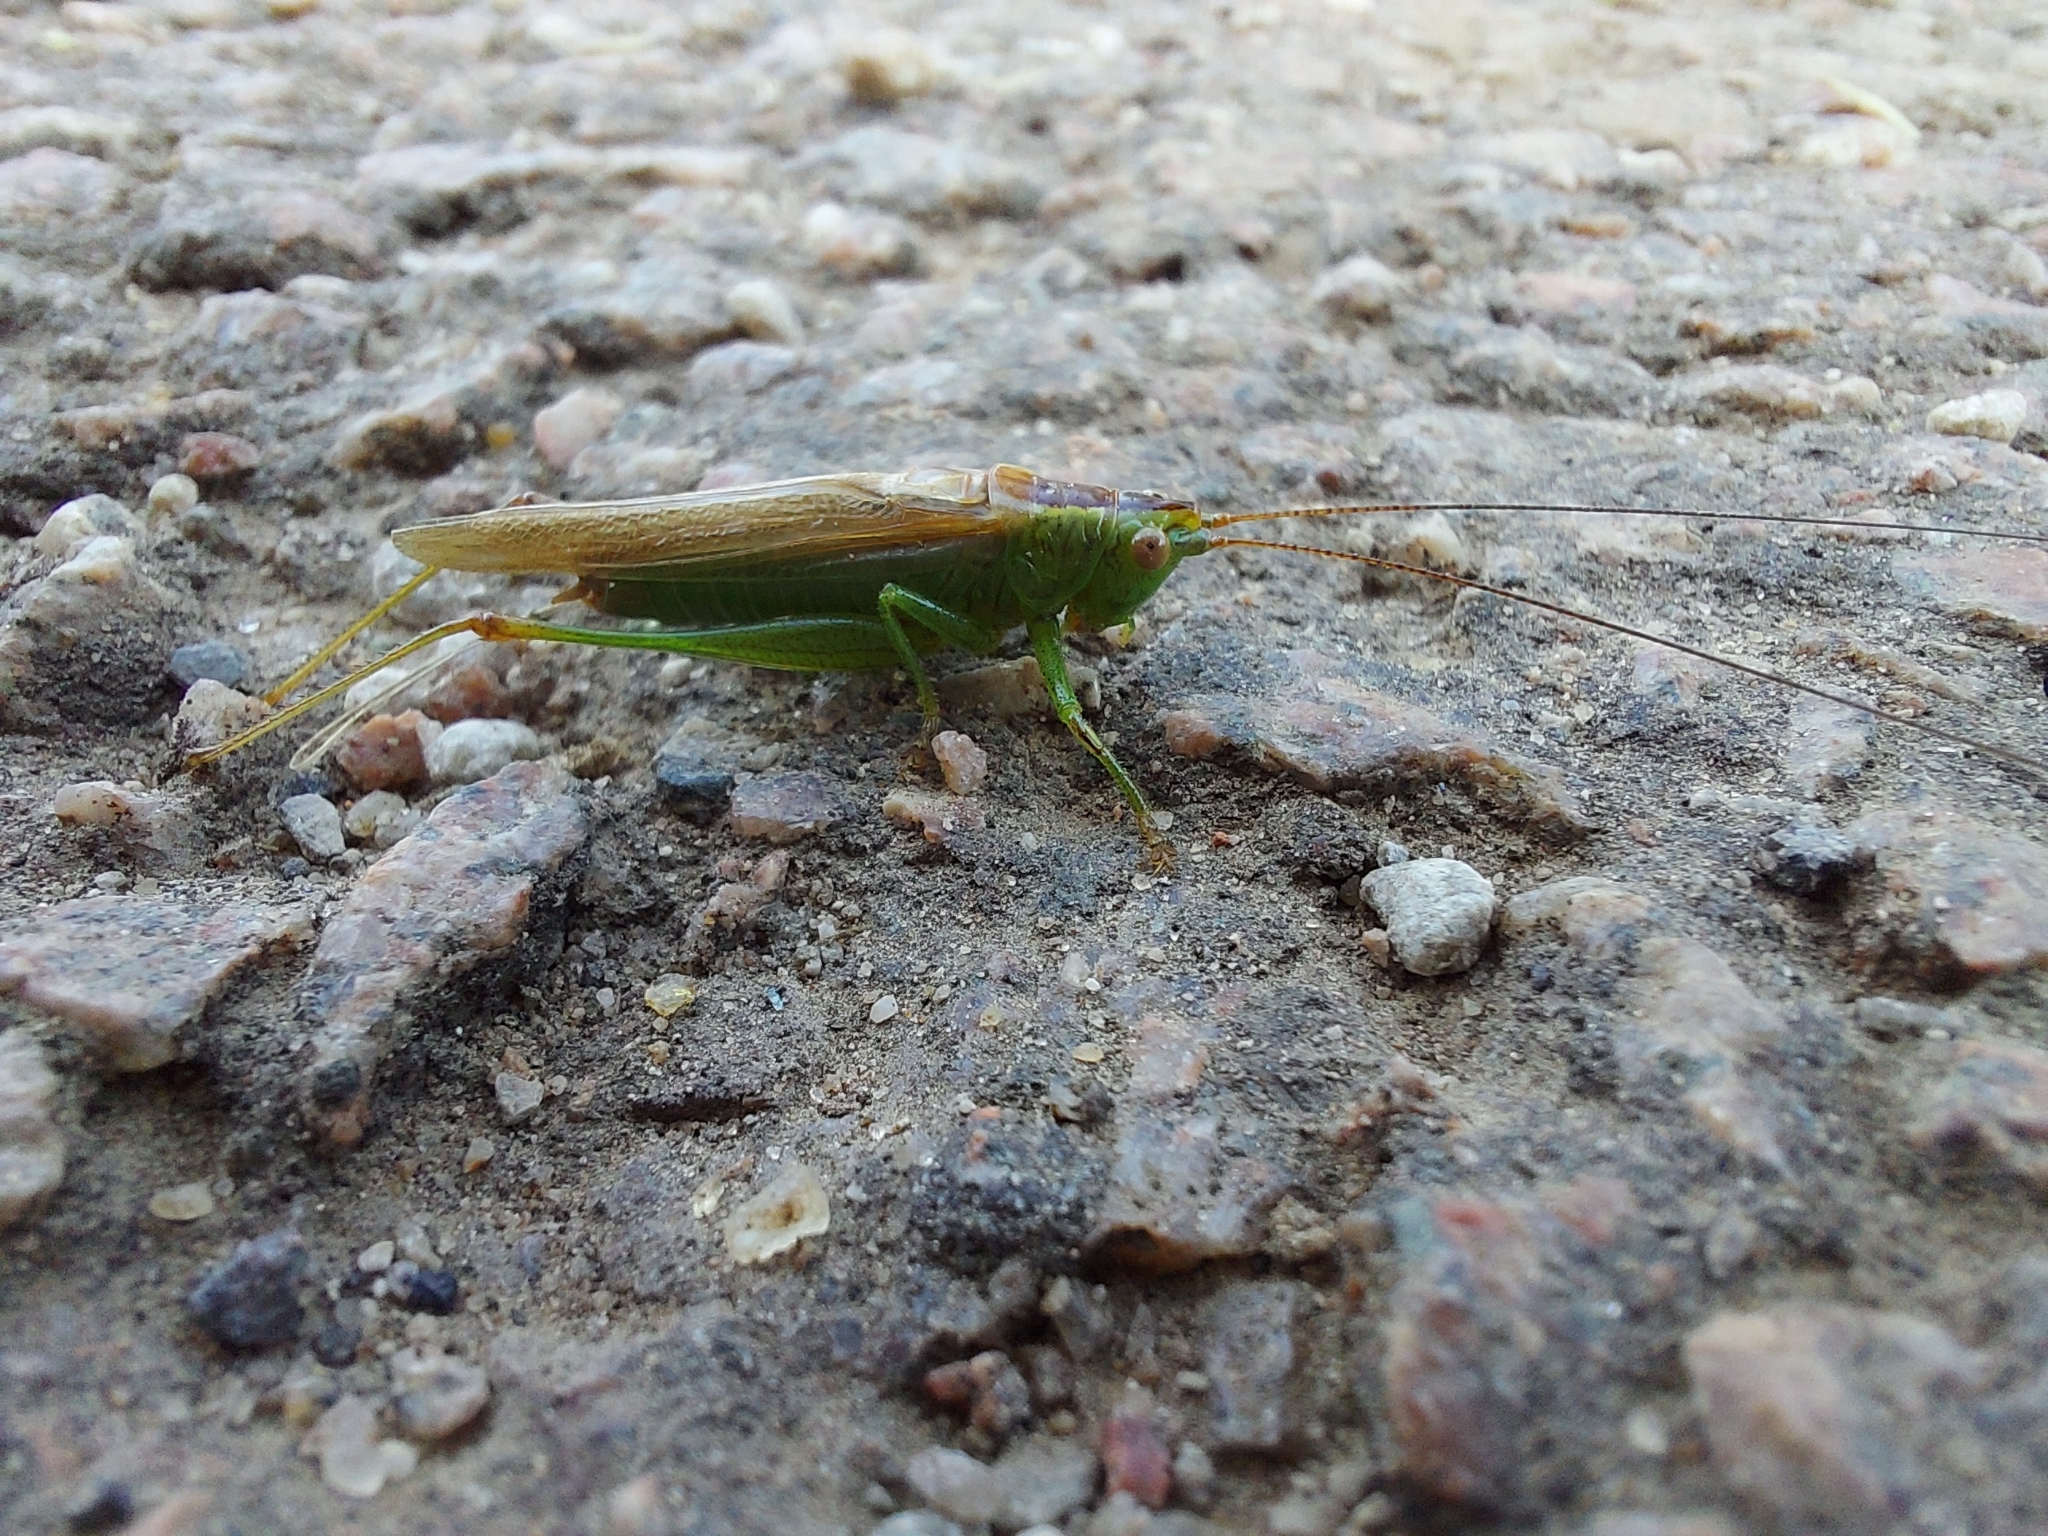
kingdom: Animalia
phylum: Arthropoda
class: Insecta
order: Orthoptera
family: Tettigoniidae
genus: Conocephalus
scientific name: Conocephalus fuscus
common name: Long-winged conehead
